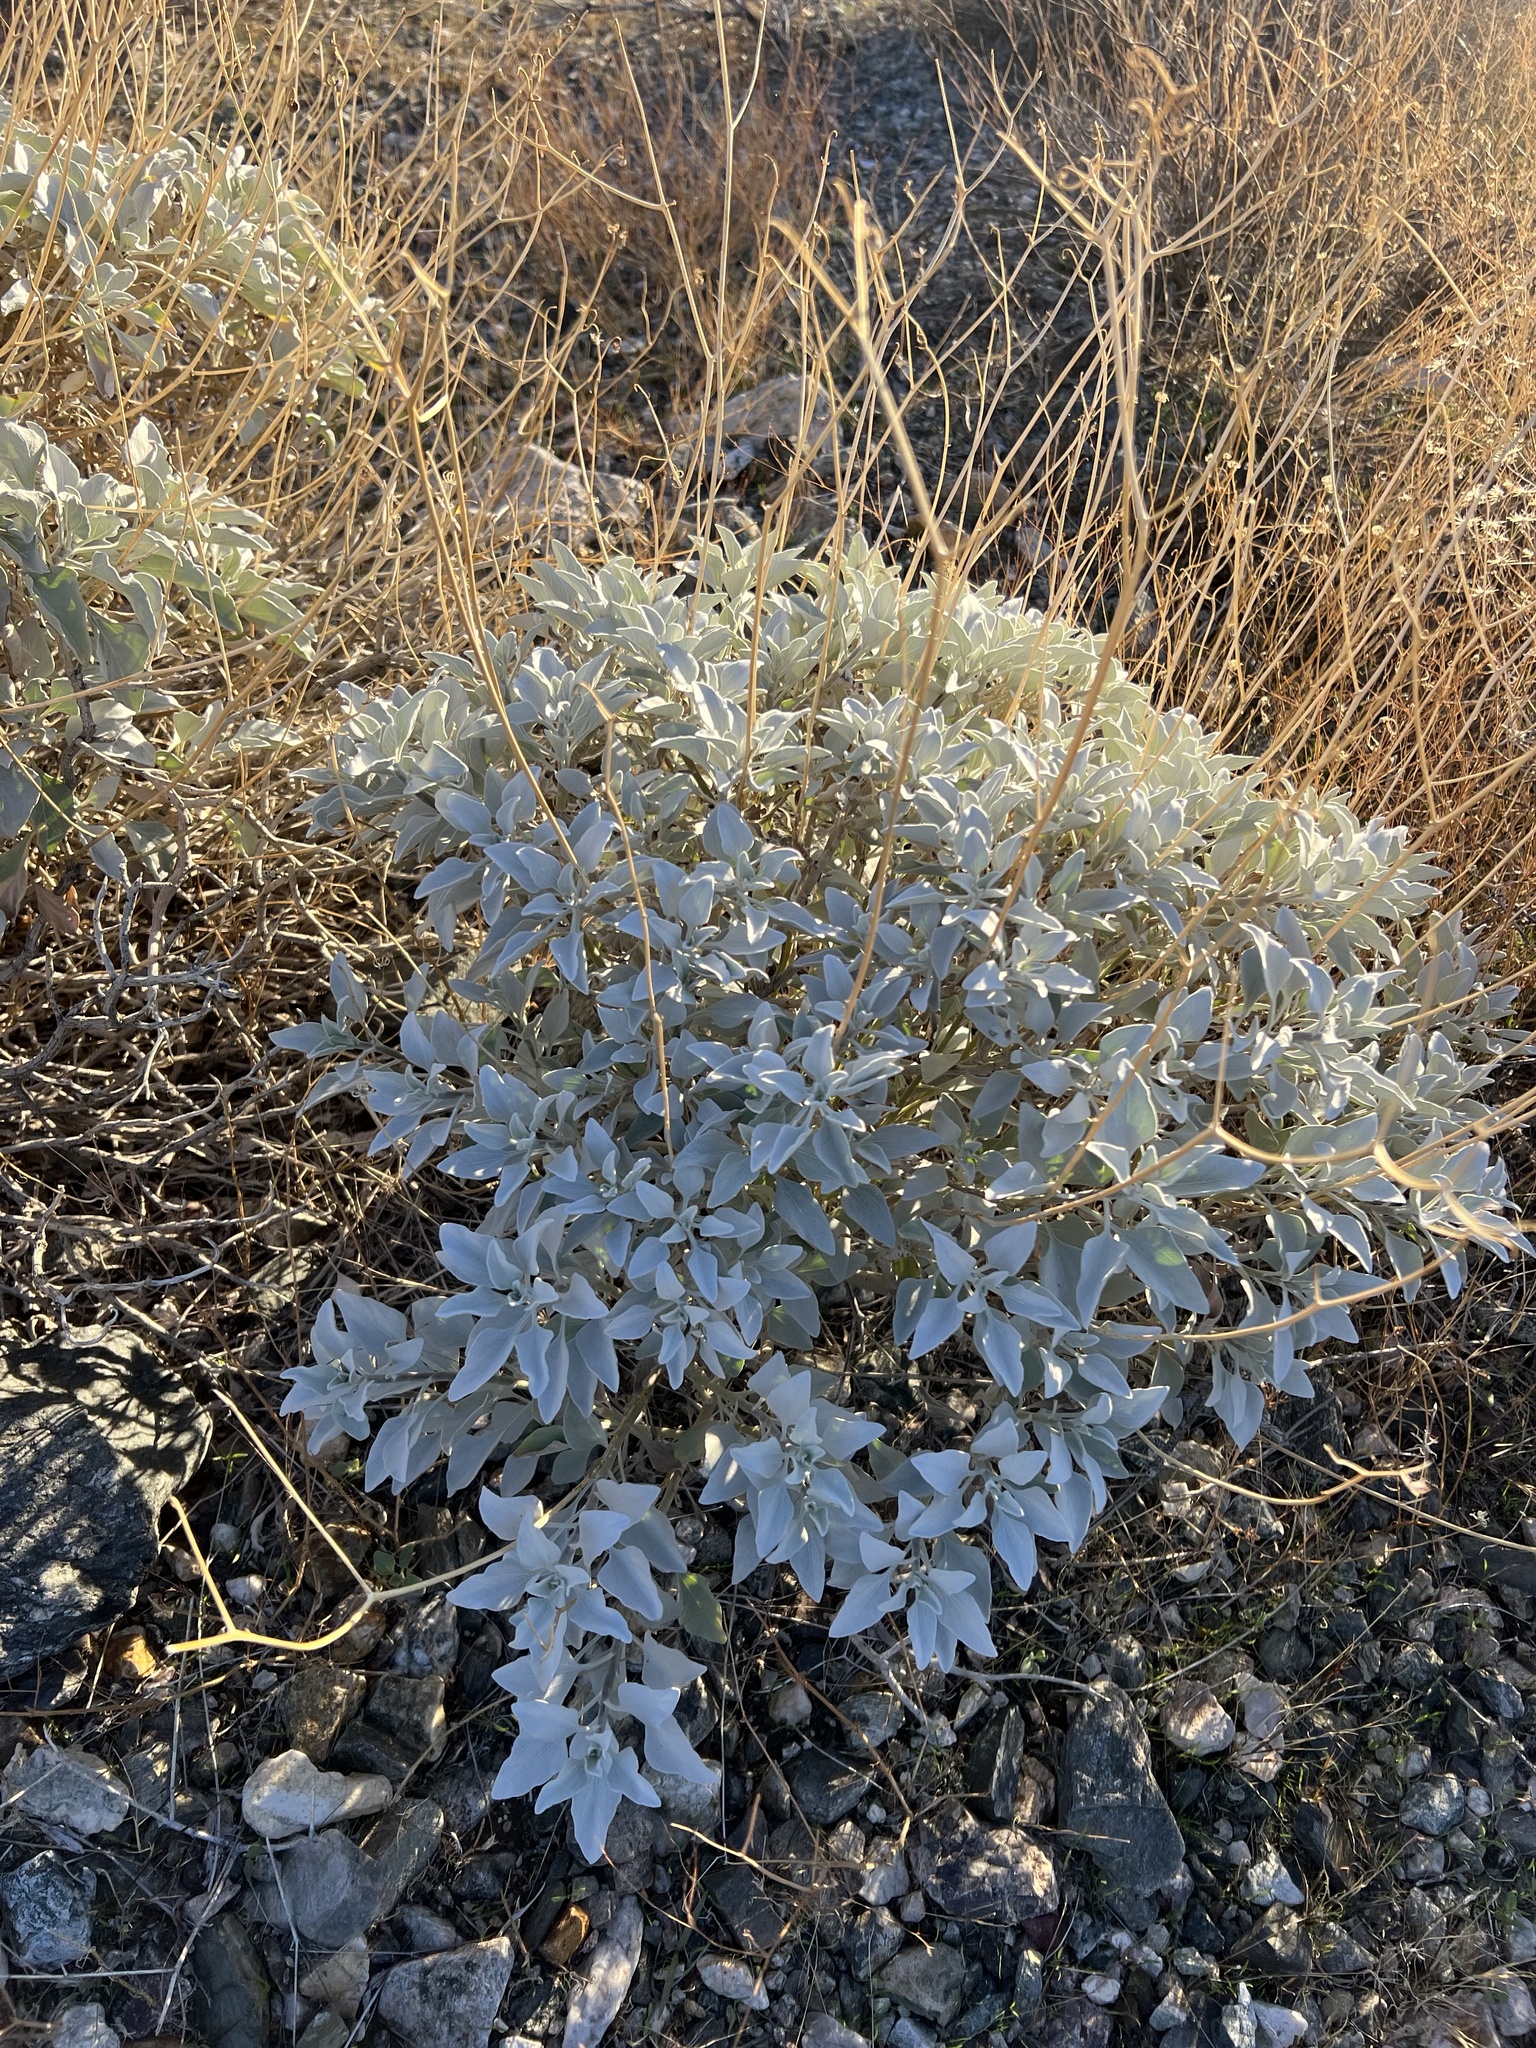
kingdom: Plantae
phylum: Tracheophyta
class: Magnoliopsida
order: Asterales
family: Asteraceae
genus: Encelia
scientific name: Encelia farinosa
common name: Brittlebush
